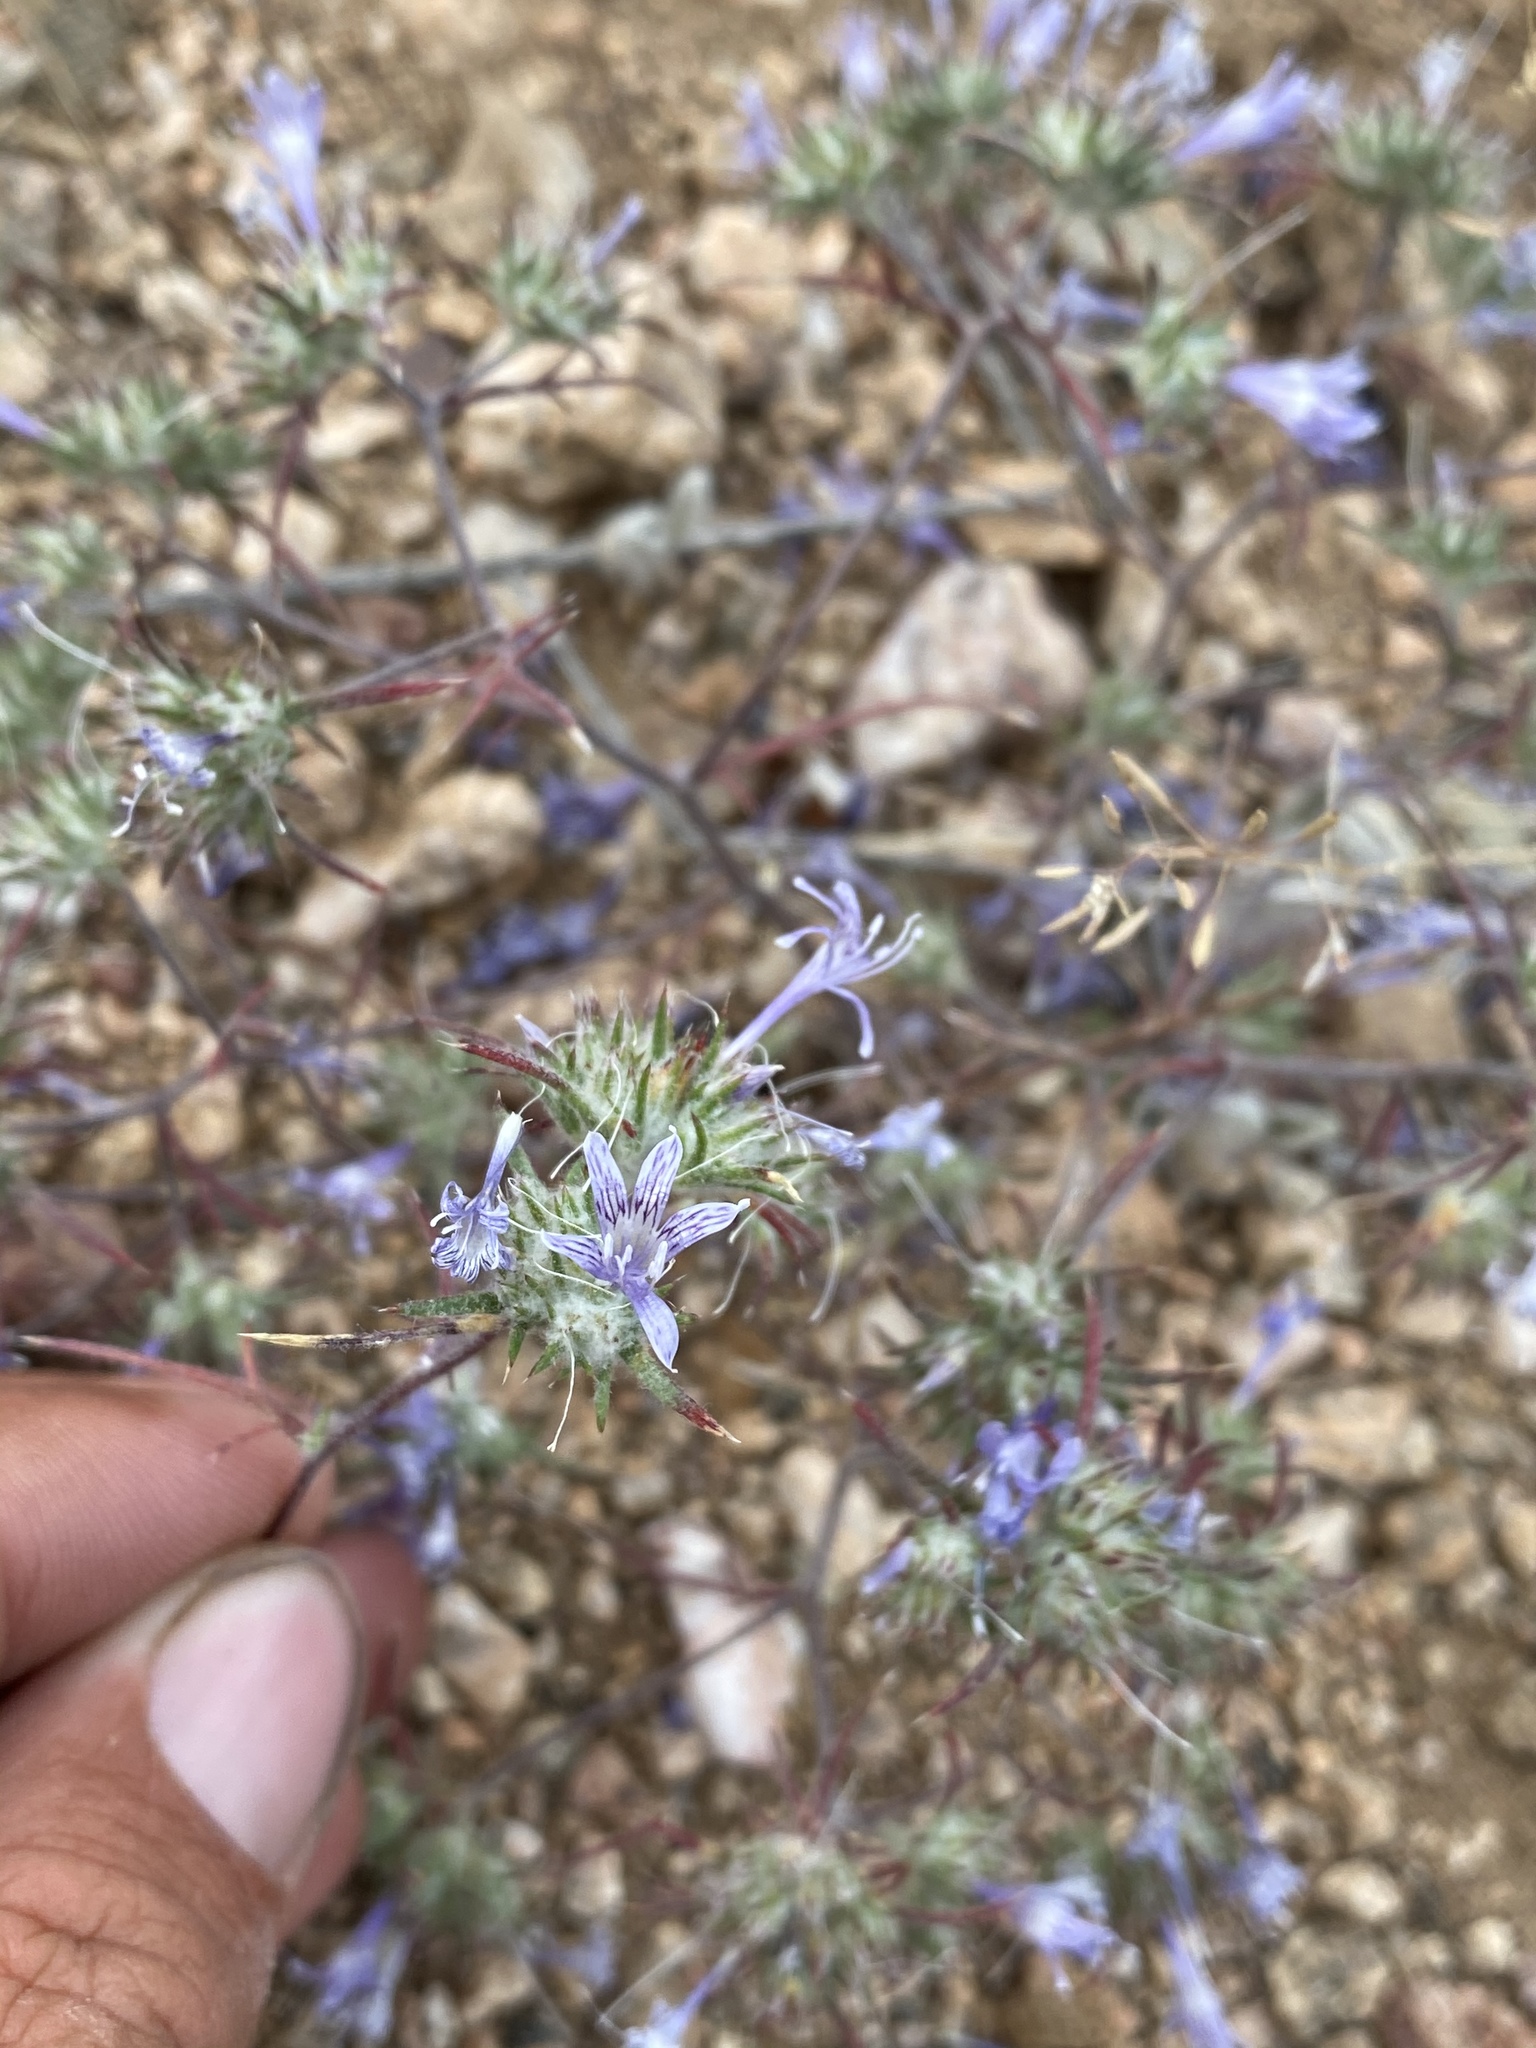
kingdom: Plantae
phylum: Tracheophyta
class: Magnoliopsida
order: Ericales
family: Polemoniaceae
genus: Eriastrum
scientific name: Eriastrum eremicum
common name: Desert eriastrum
